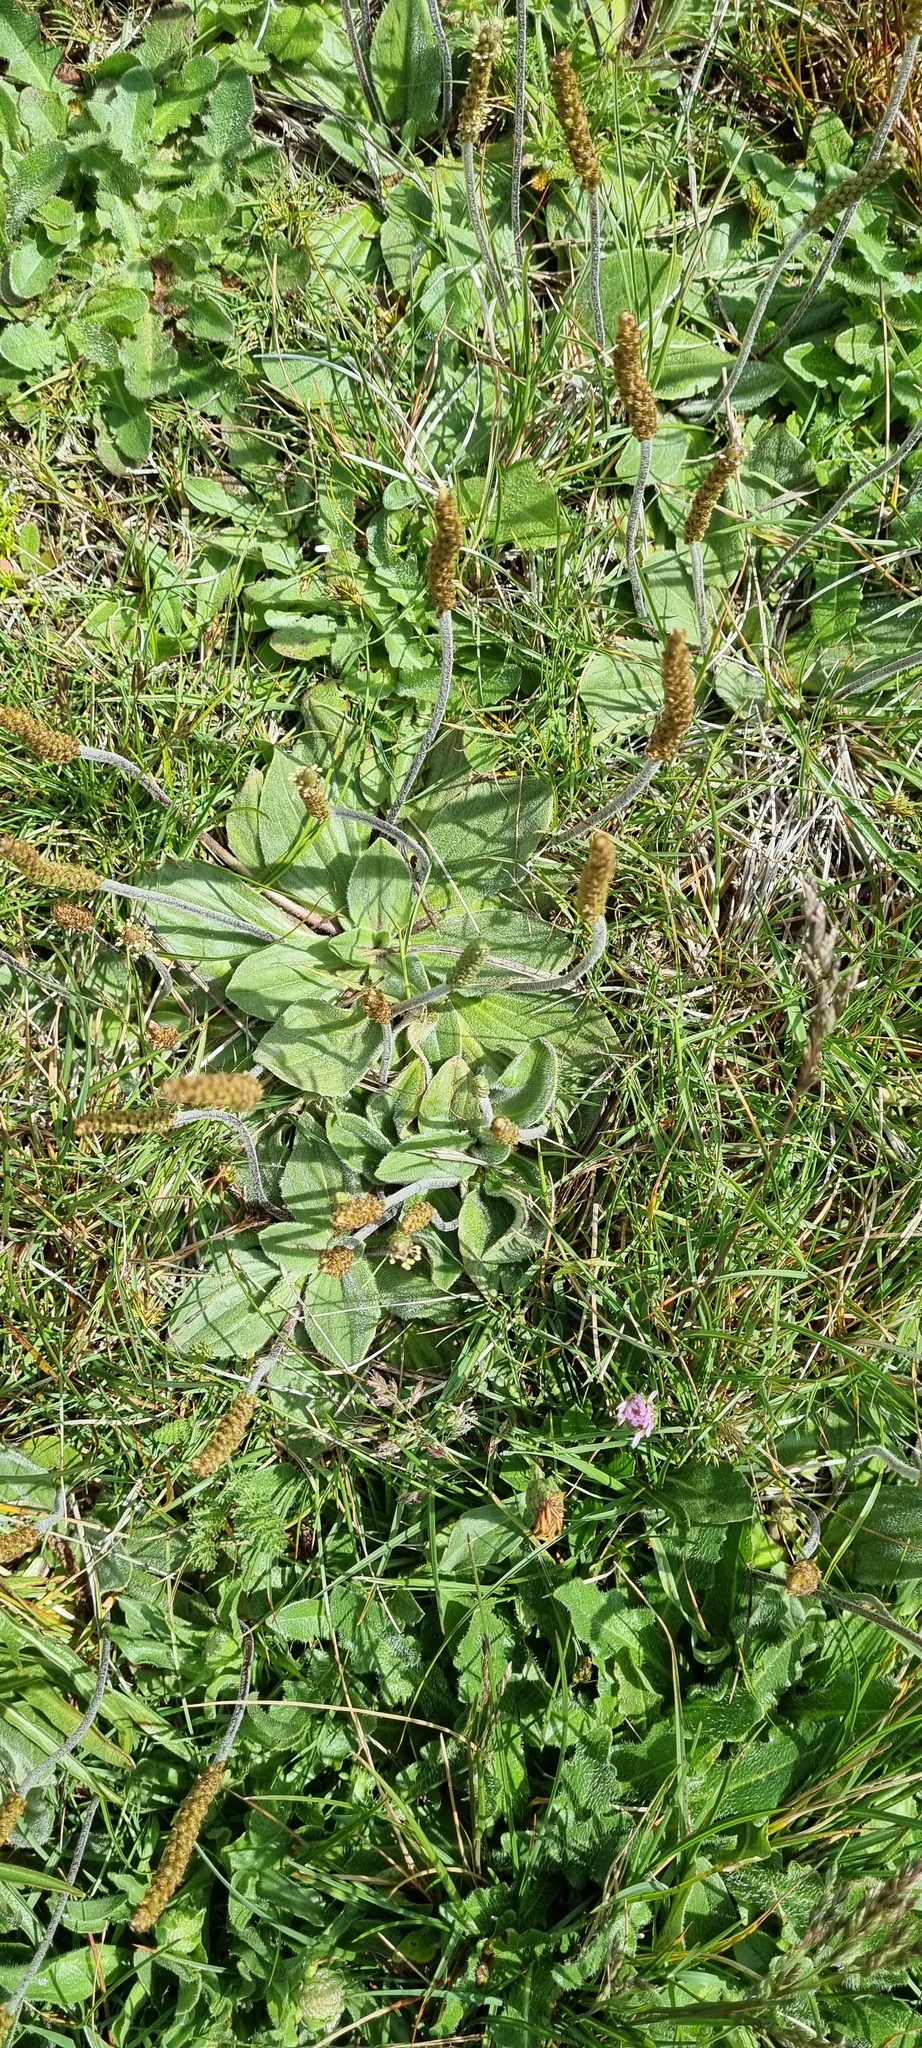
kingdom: Plantae
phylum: Tracheophyta
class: Magnoliopsida
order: Lamiales
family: Plantaginaceae
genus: Plantago
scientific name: Plantago euryphylla
